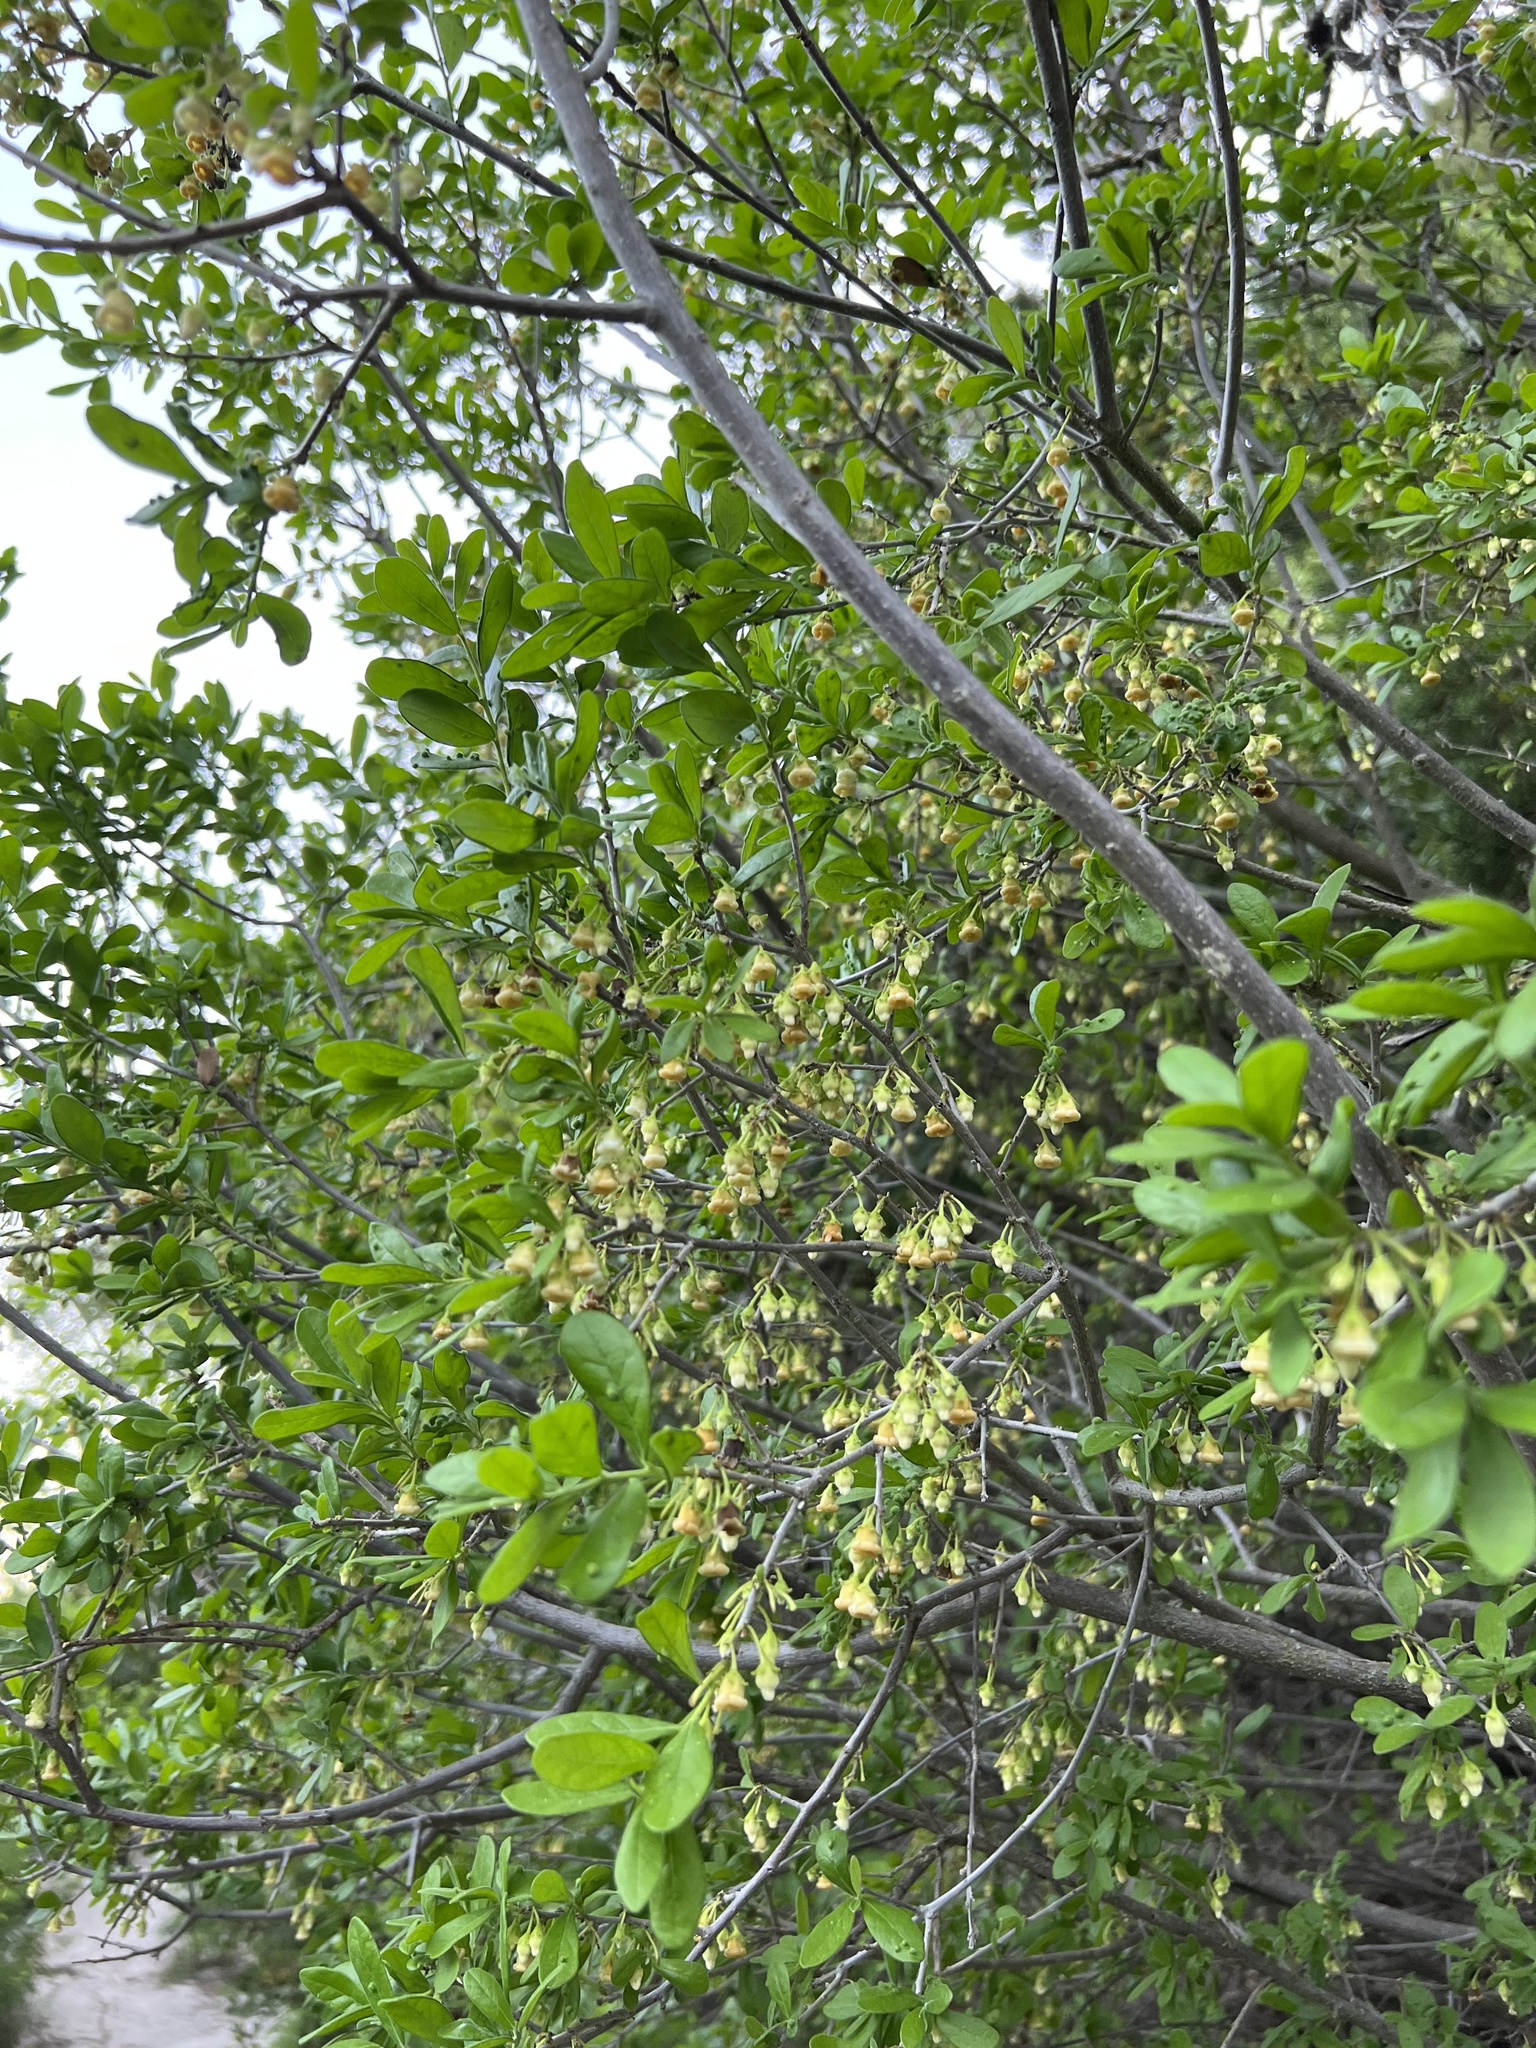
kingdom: Plantae
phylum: Tracheophyta
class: Magnoliopsida
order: Ericales
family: Ebenaceae
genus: Diospyros
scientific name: Diospyros texana
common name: Texas persimmon
